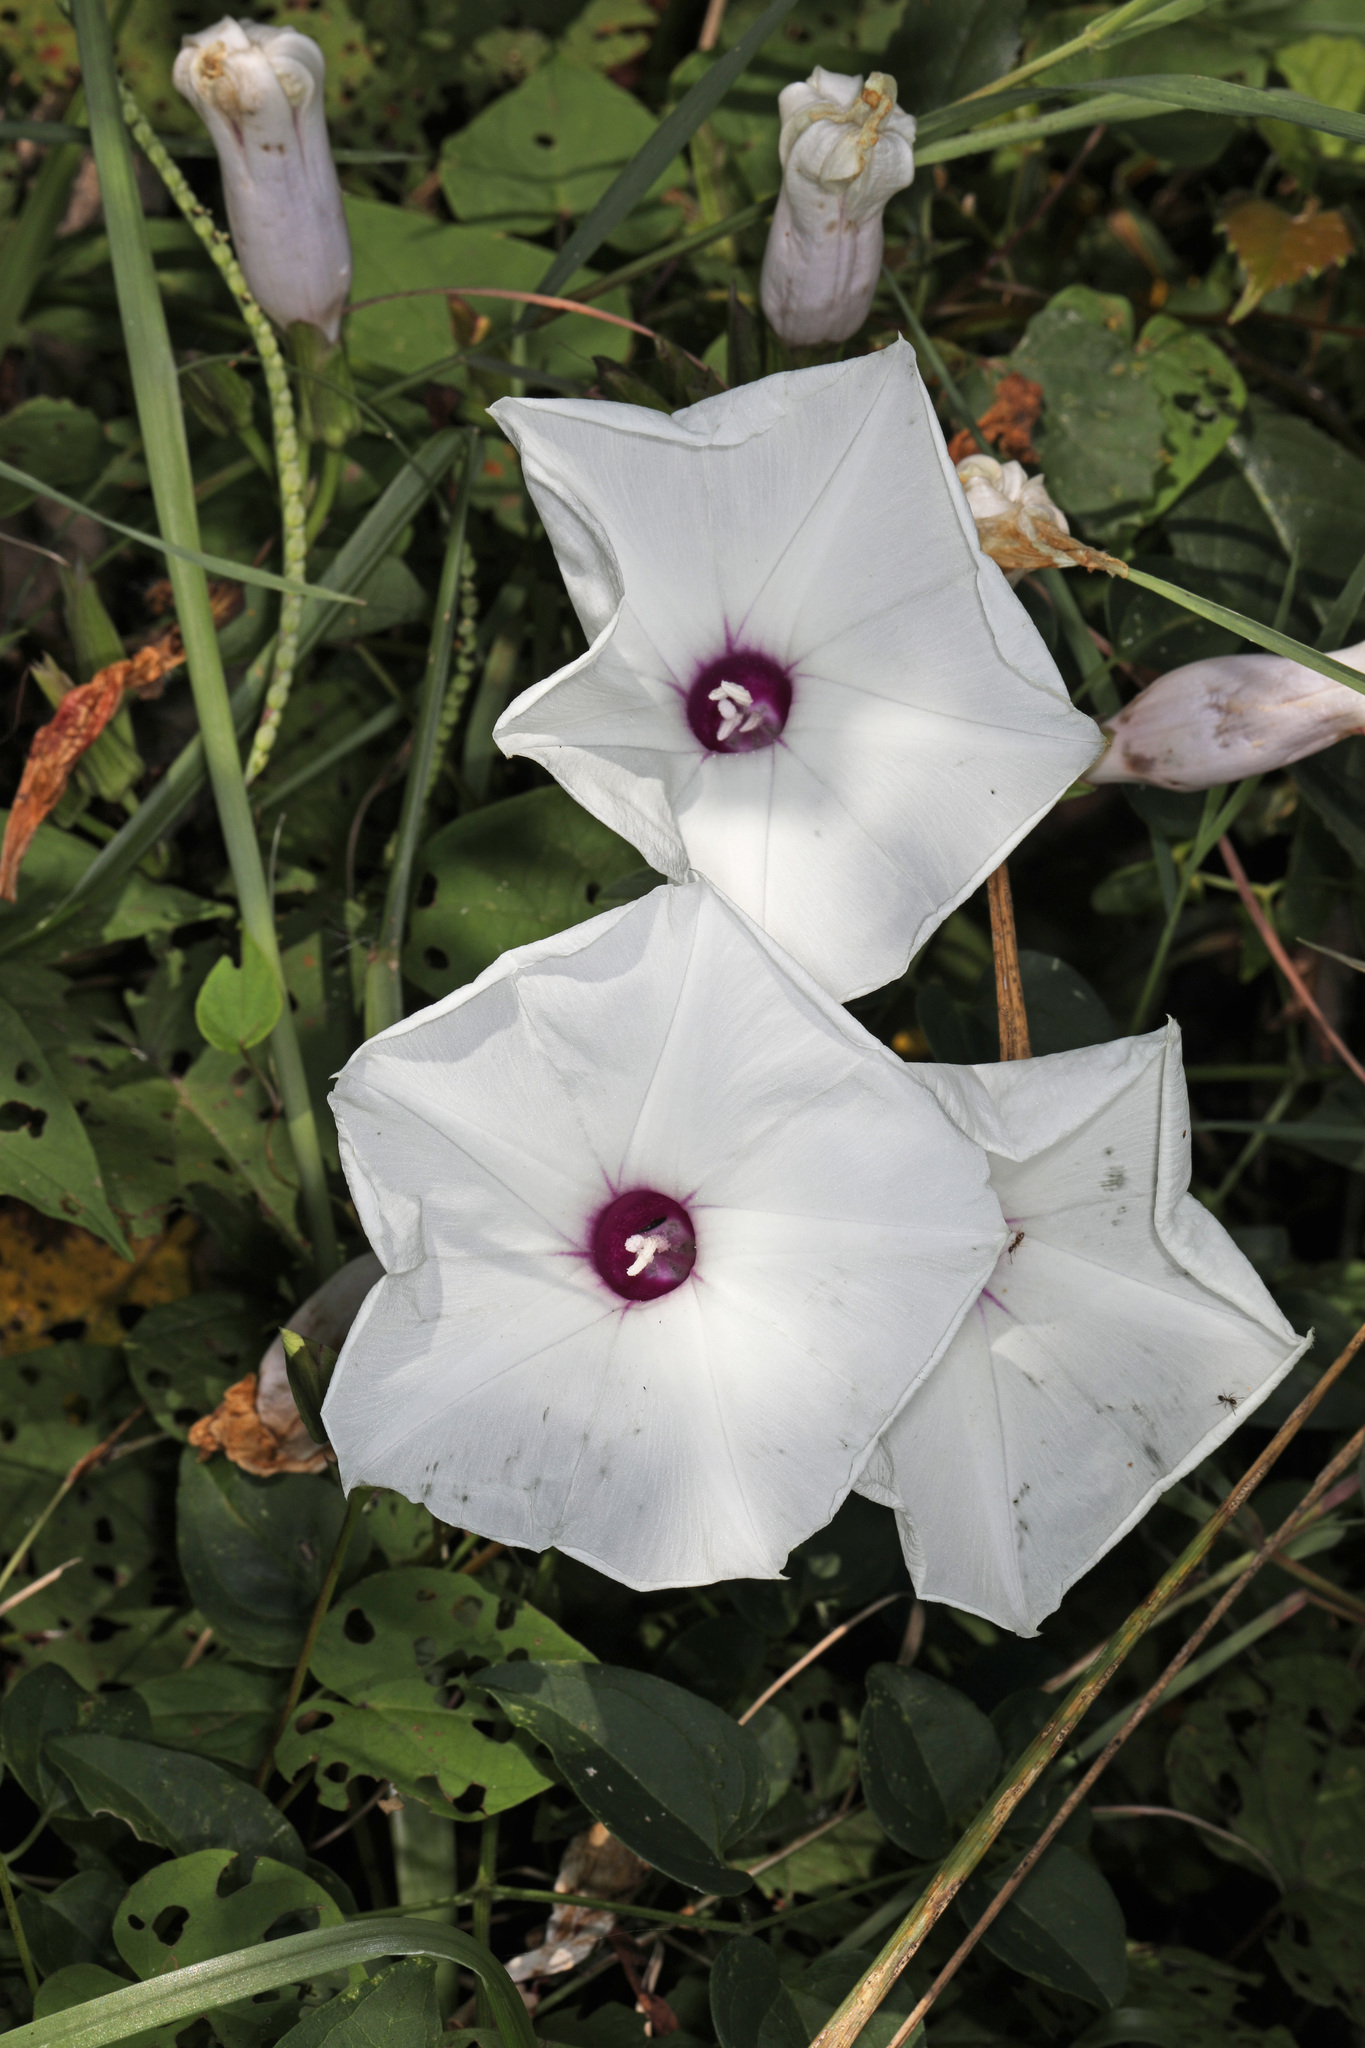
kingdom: Plantae
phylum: Tracheophyta
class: Magnoliopsida
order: Solanales
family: Convolvulaceae
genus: Ipomoea
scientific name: Ipomoea pandurata
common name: Man-of-the-earth
